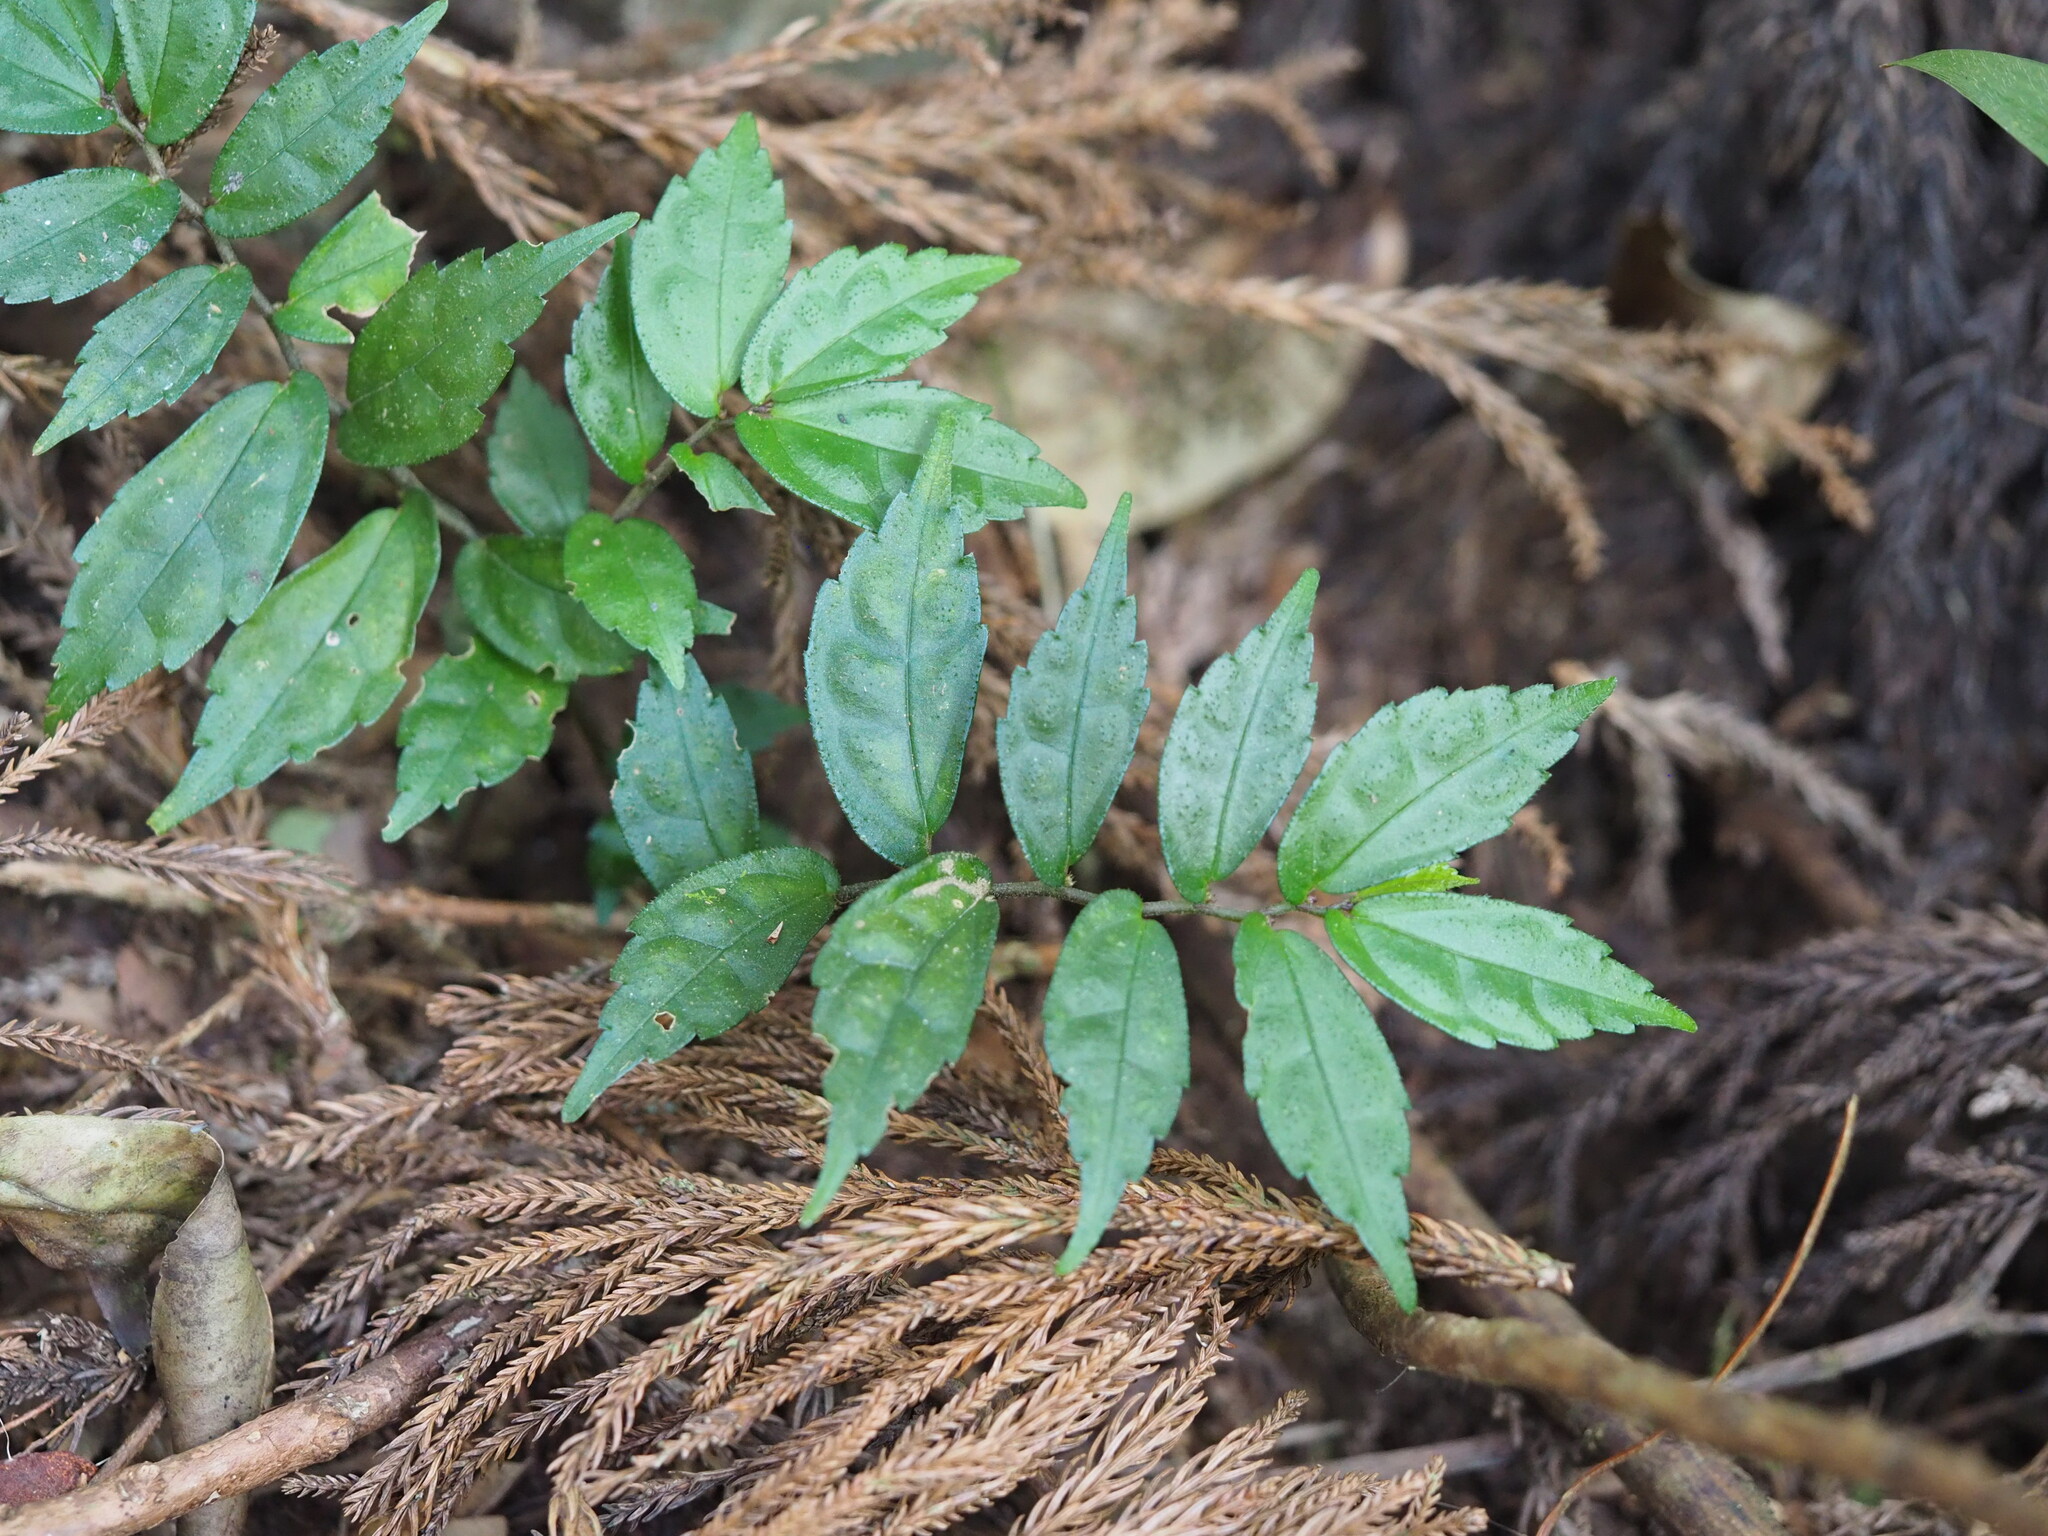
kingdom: Plantae
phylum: Tracheophyta
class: Magnoliopsida
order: Rosales
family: Urticaceae
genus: Elatostema
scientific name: Elatostema scabrum
